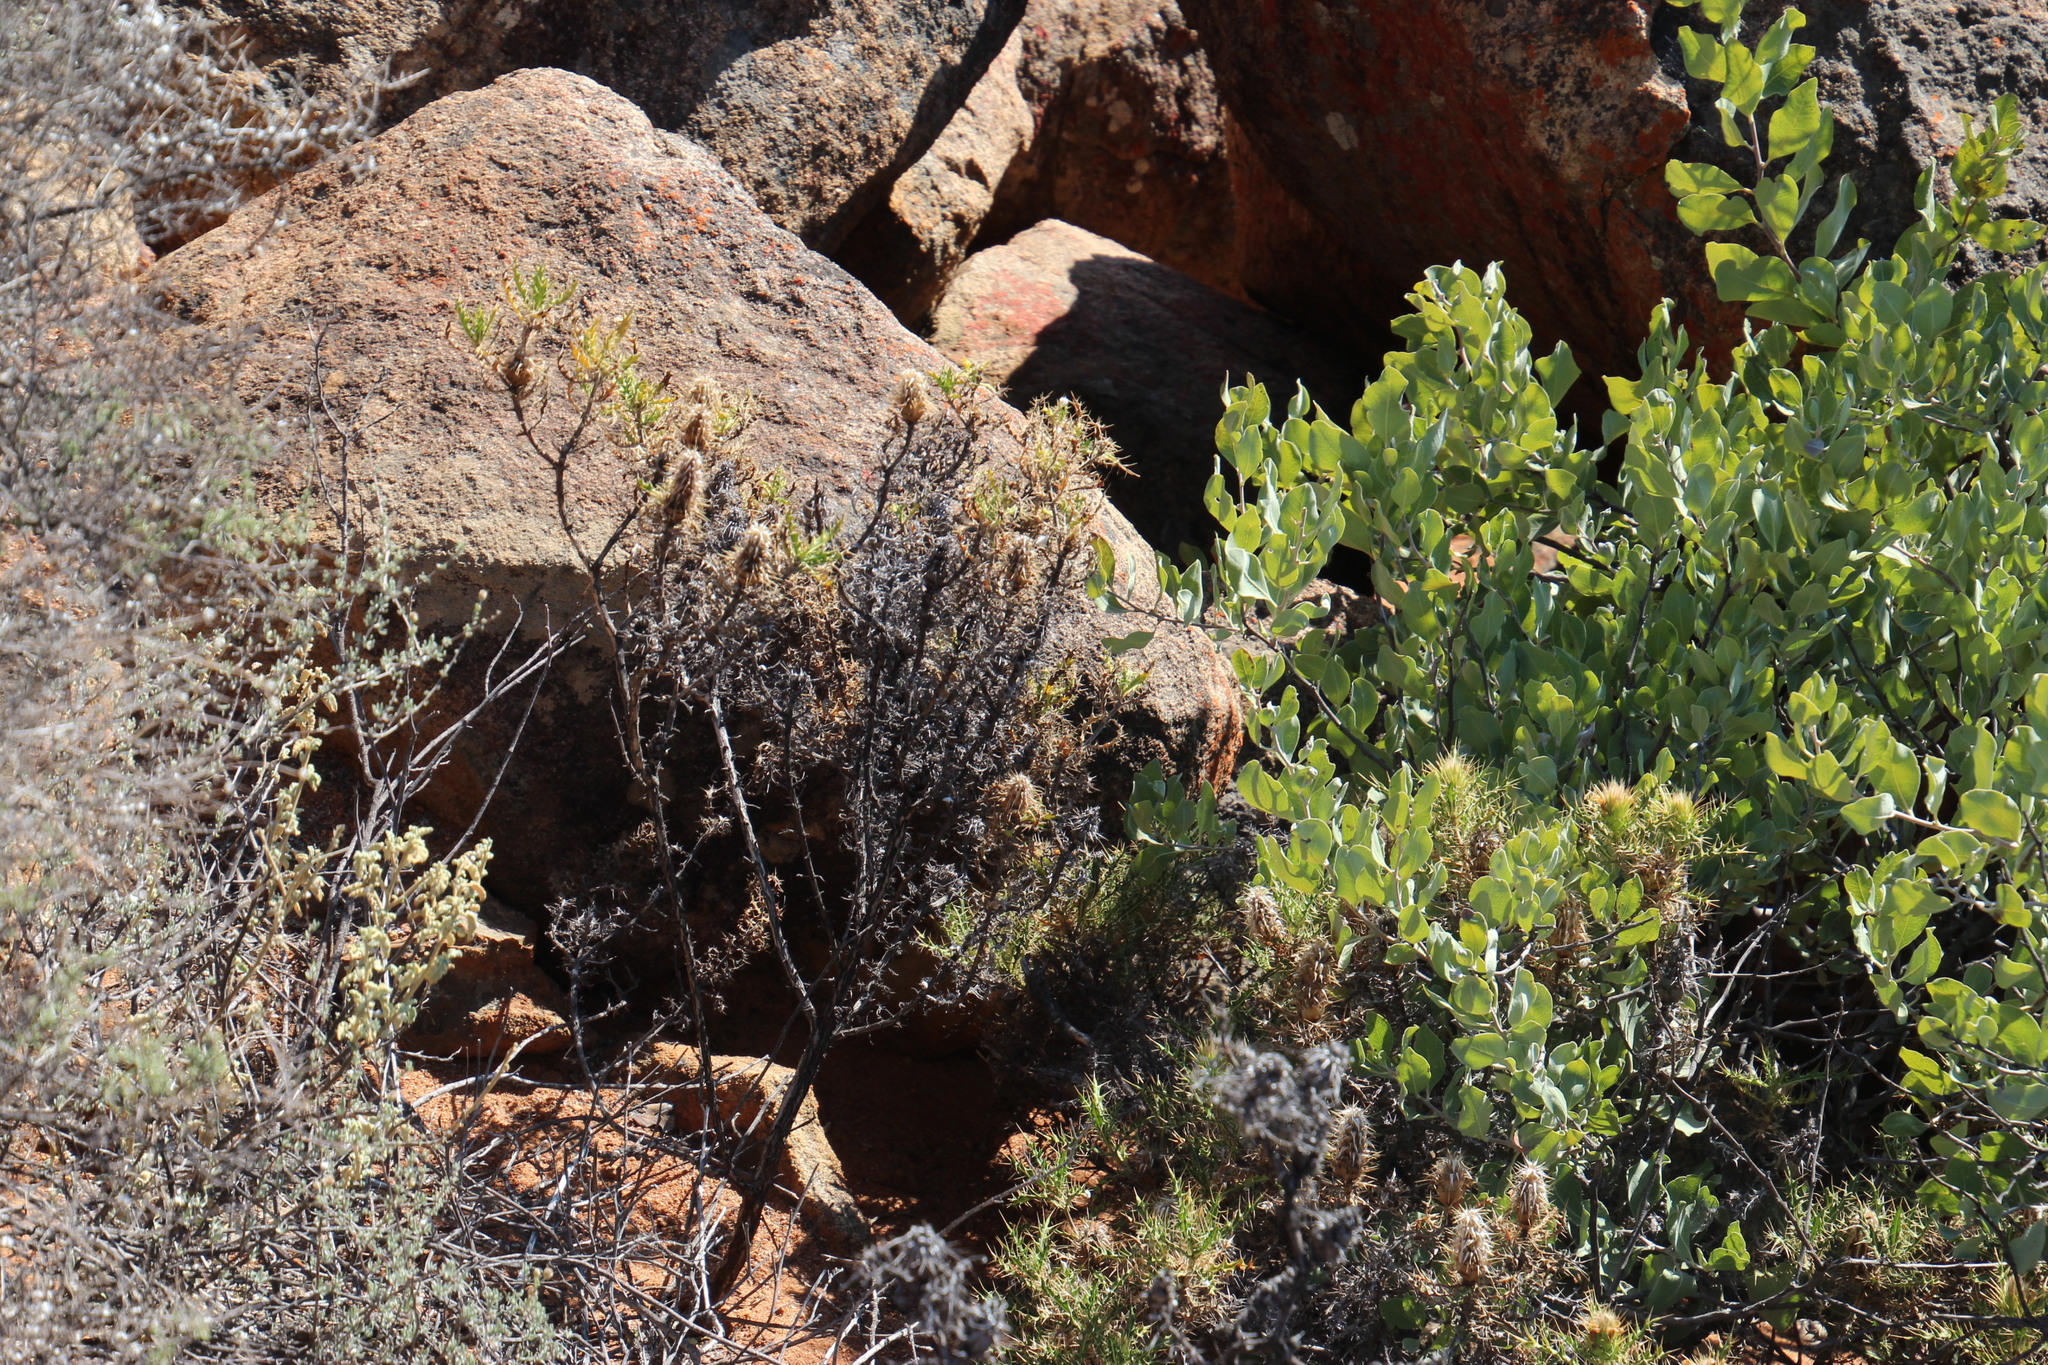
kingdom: Plantae
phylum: Tracheophyta
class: Magnoliopsida
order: Lamiales
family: Acanthaceae
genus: Acanthopsis
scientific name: Acanthopsis horrida
